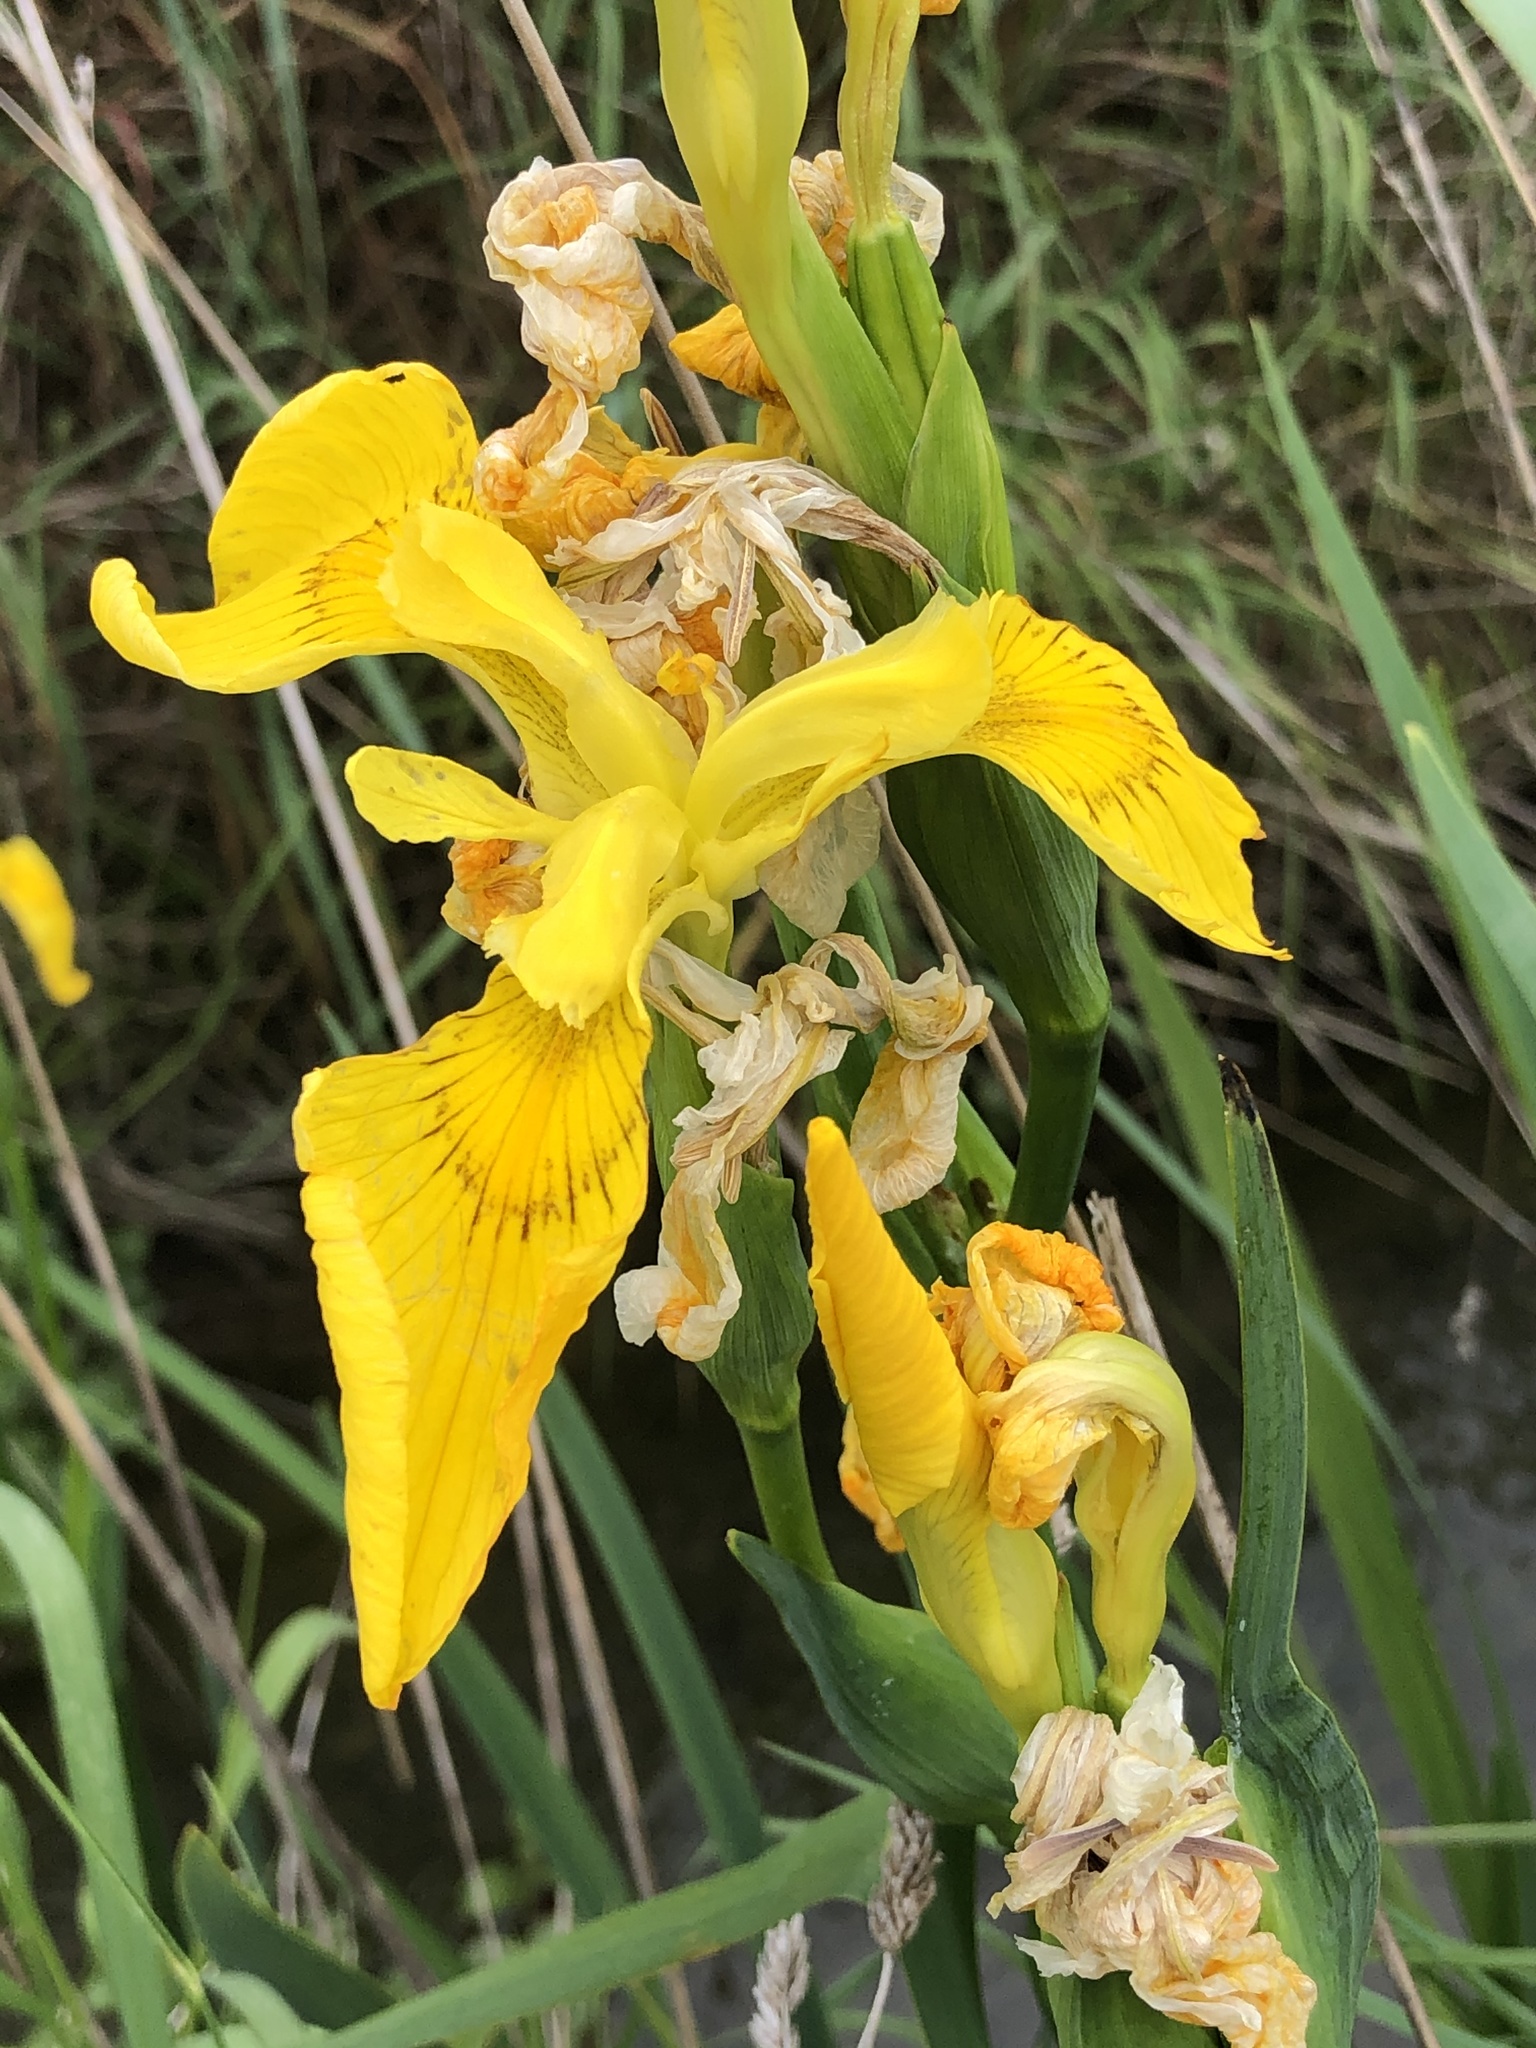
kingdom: Plantae
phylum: Tracheophyta
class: Liliopsida
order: Asparagales
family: Iridaceae
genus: Iris
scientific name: Iris pseudacorus
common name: Yellow flag
